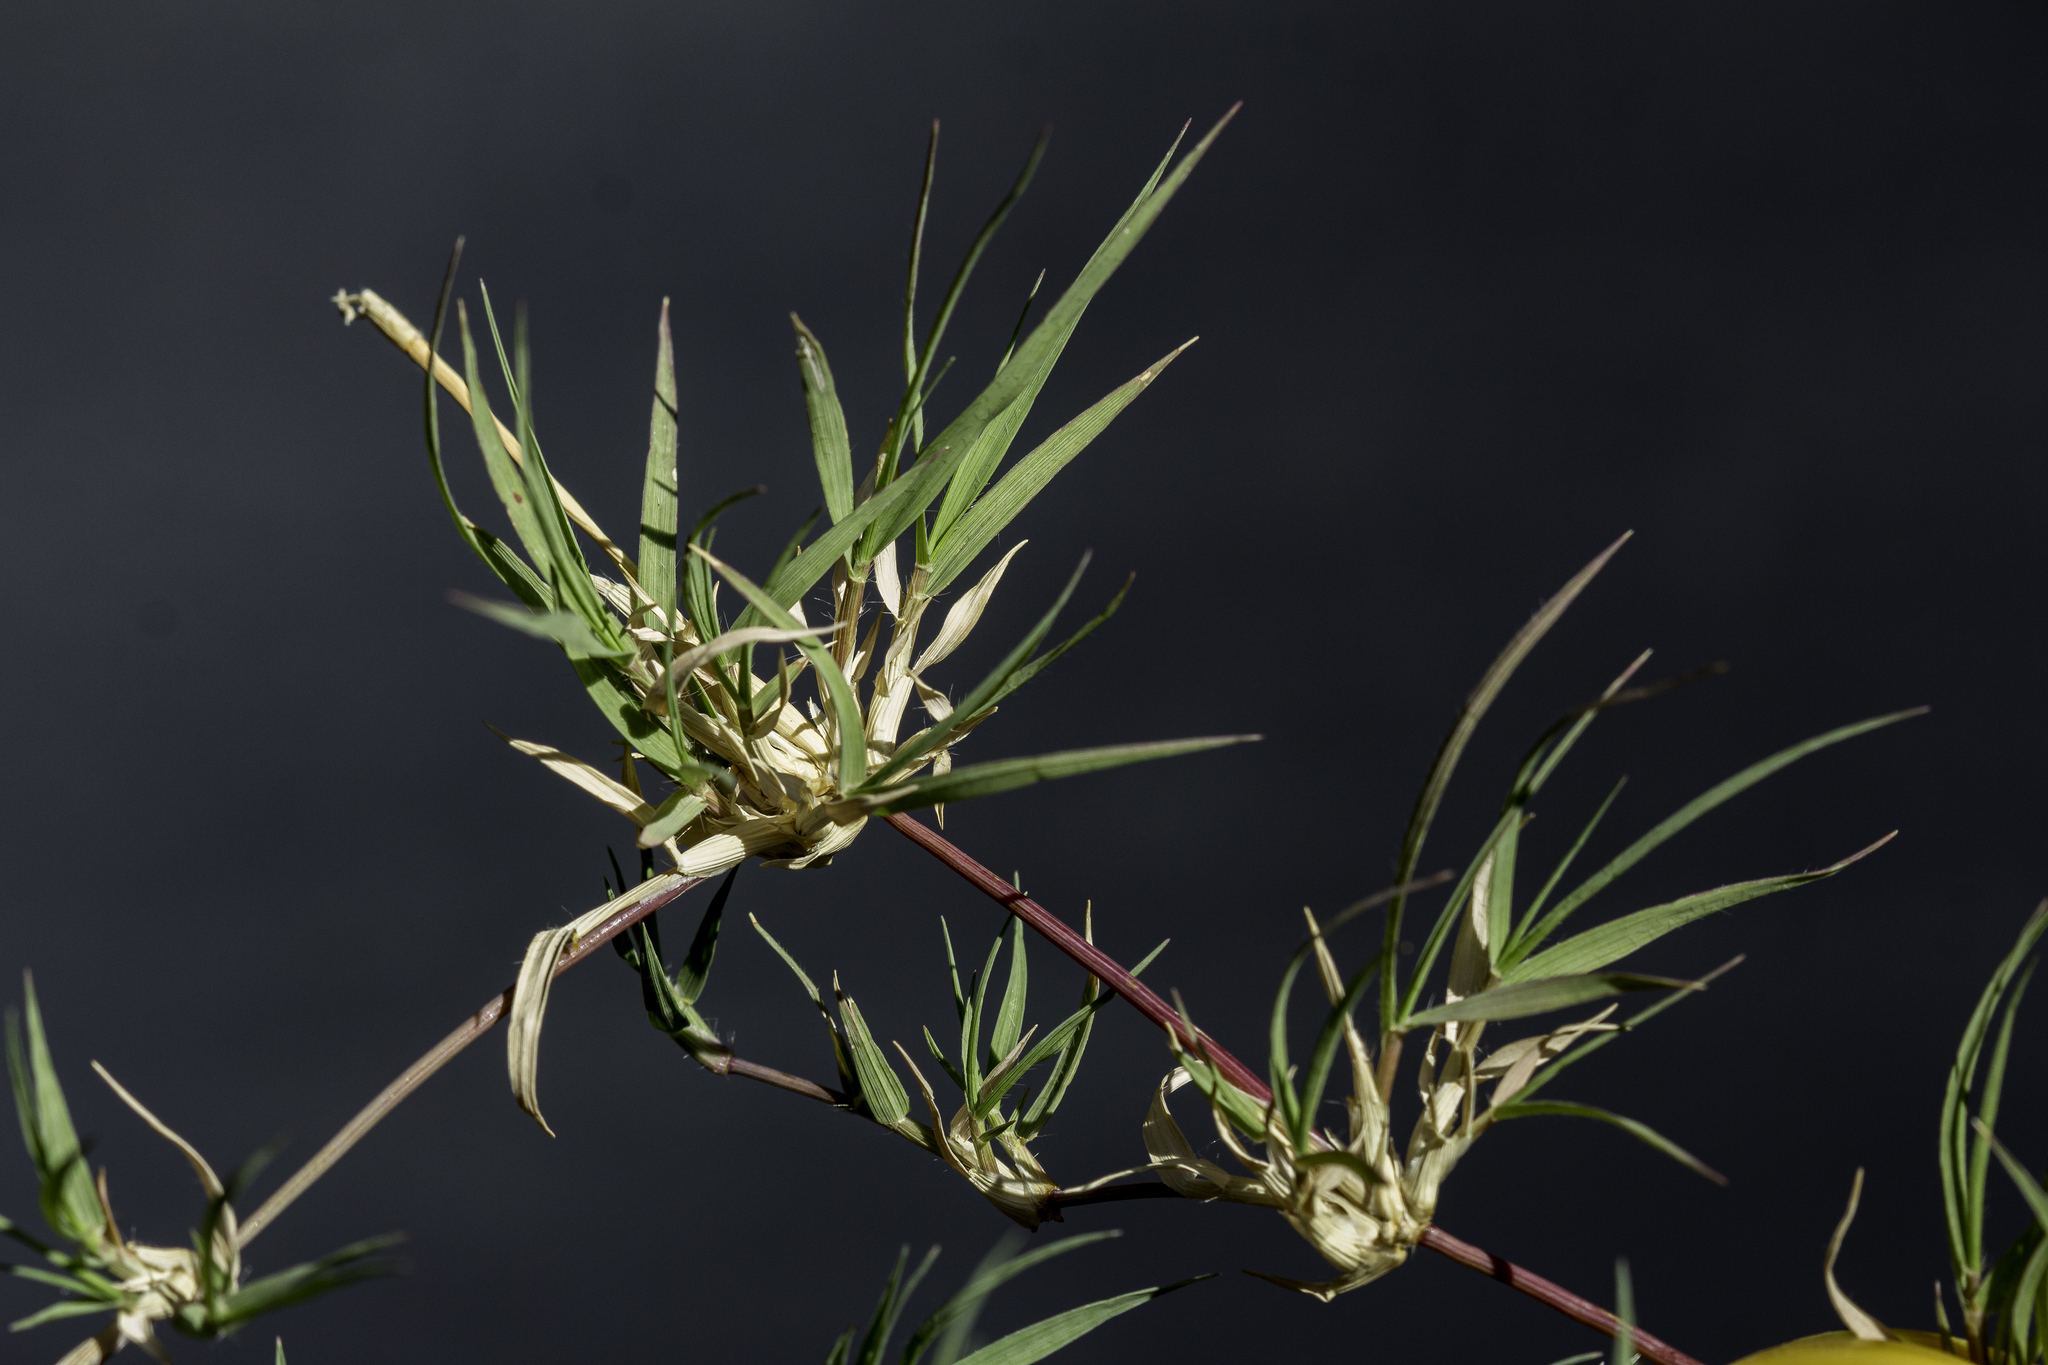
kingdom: Plantae
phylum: Tracheophyta
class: Liliopsida
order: Poales
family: Poaceae
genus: Munroa
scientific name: Munroa squarrosa
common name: False buffalo grass
